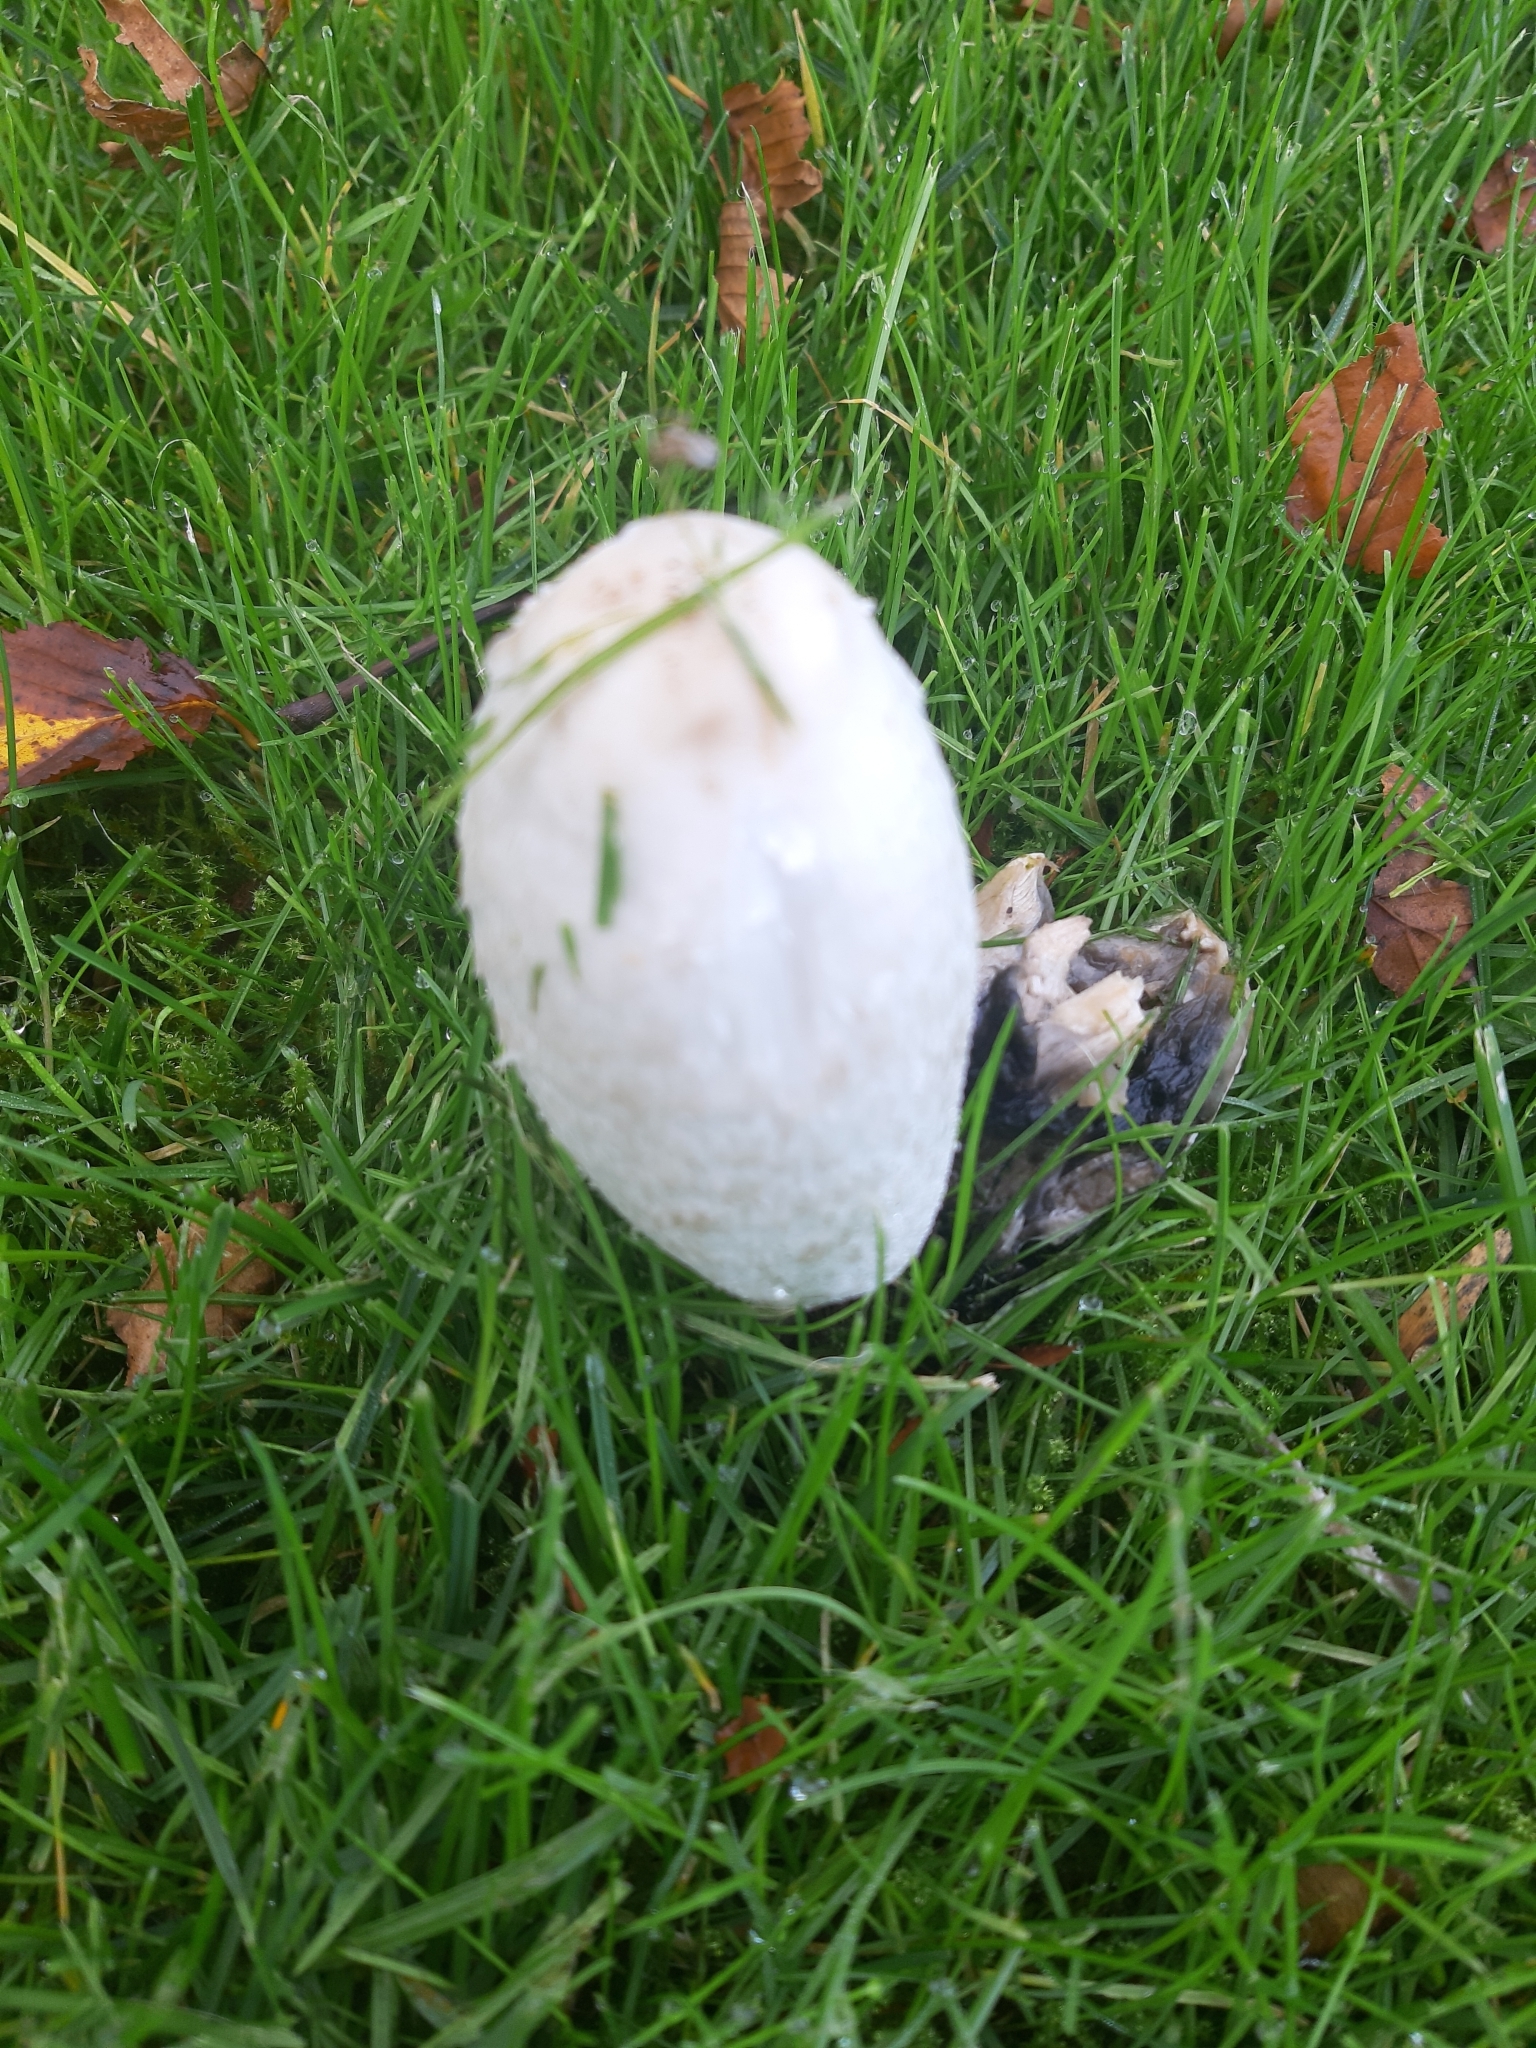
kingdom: Fungi
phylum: Basidiomycota
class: Agaricomycetes
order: Agaricales
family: Agaricaceae
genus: Coprinus
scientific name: Coprinus comatus
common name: Lawyer's wig
